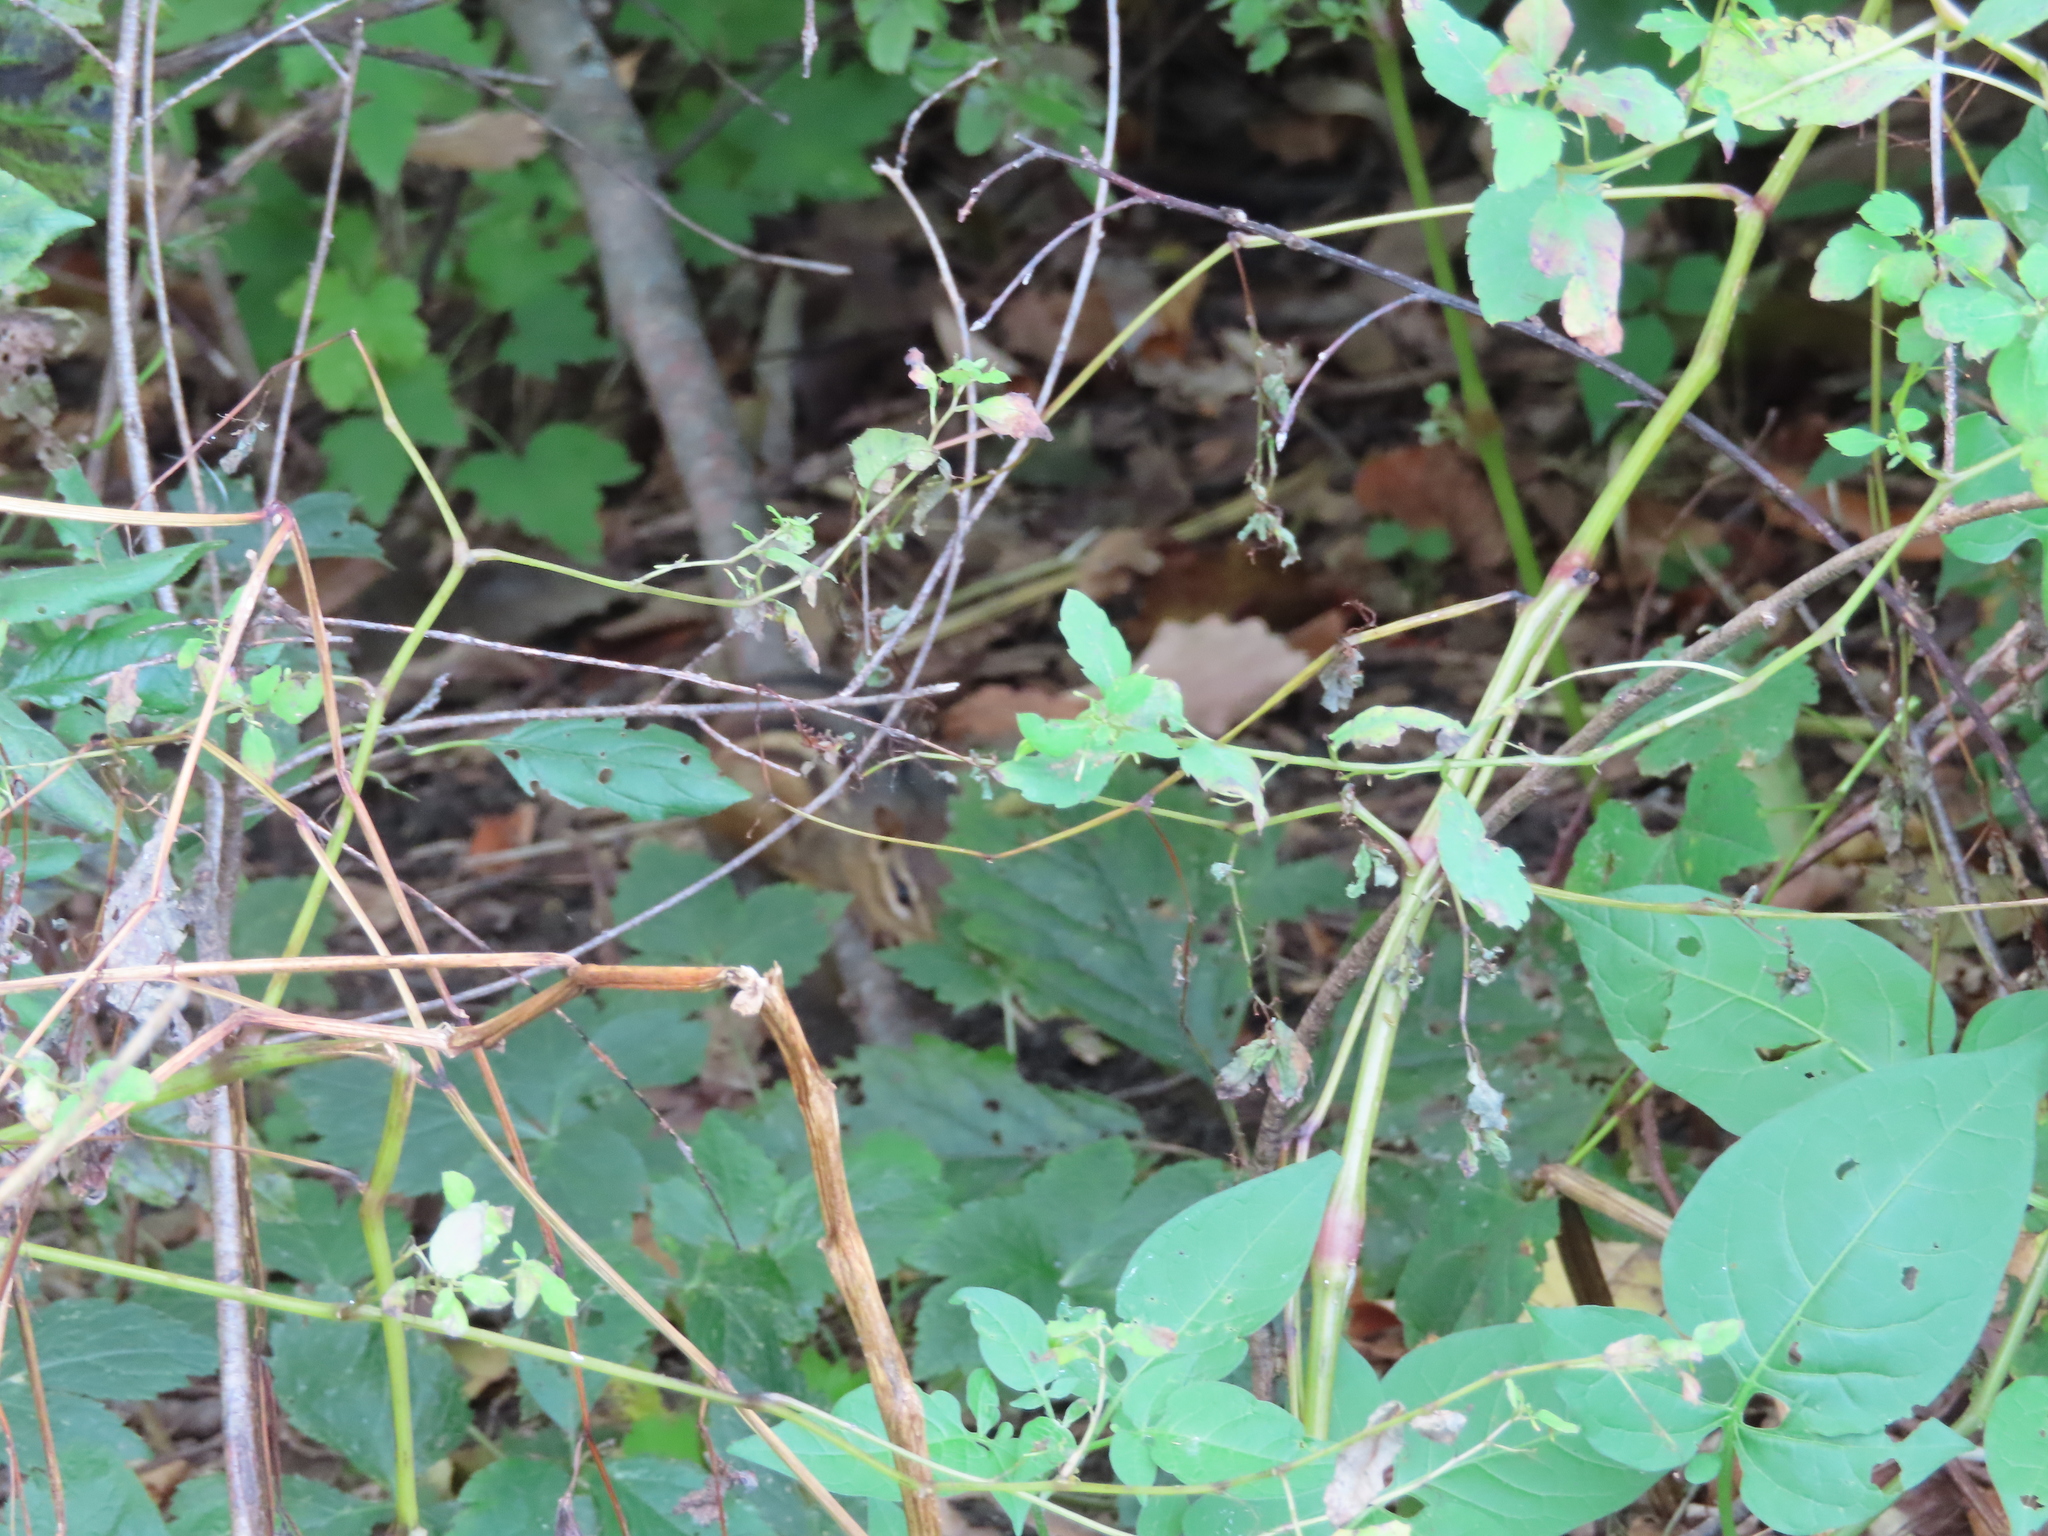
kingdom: Plantae
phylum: Tracheophyta
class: Magnoliopsida
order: Ericales
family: Balsaminaceae
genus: Impatiens
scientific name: Impatiens capensis
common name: Orange balsam
